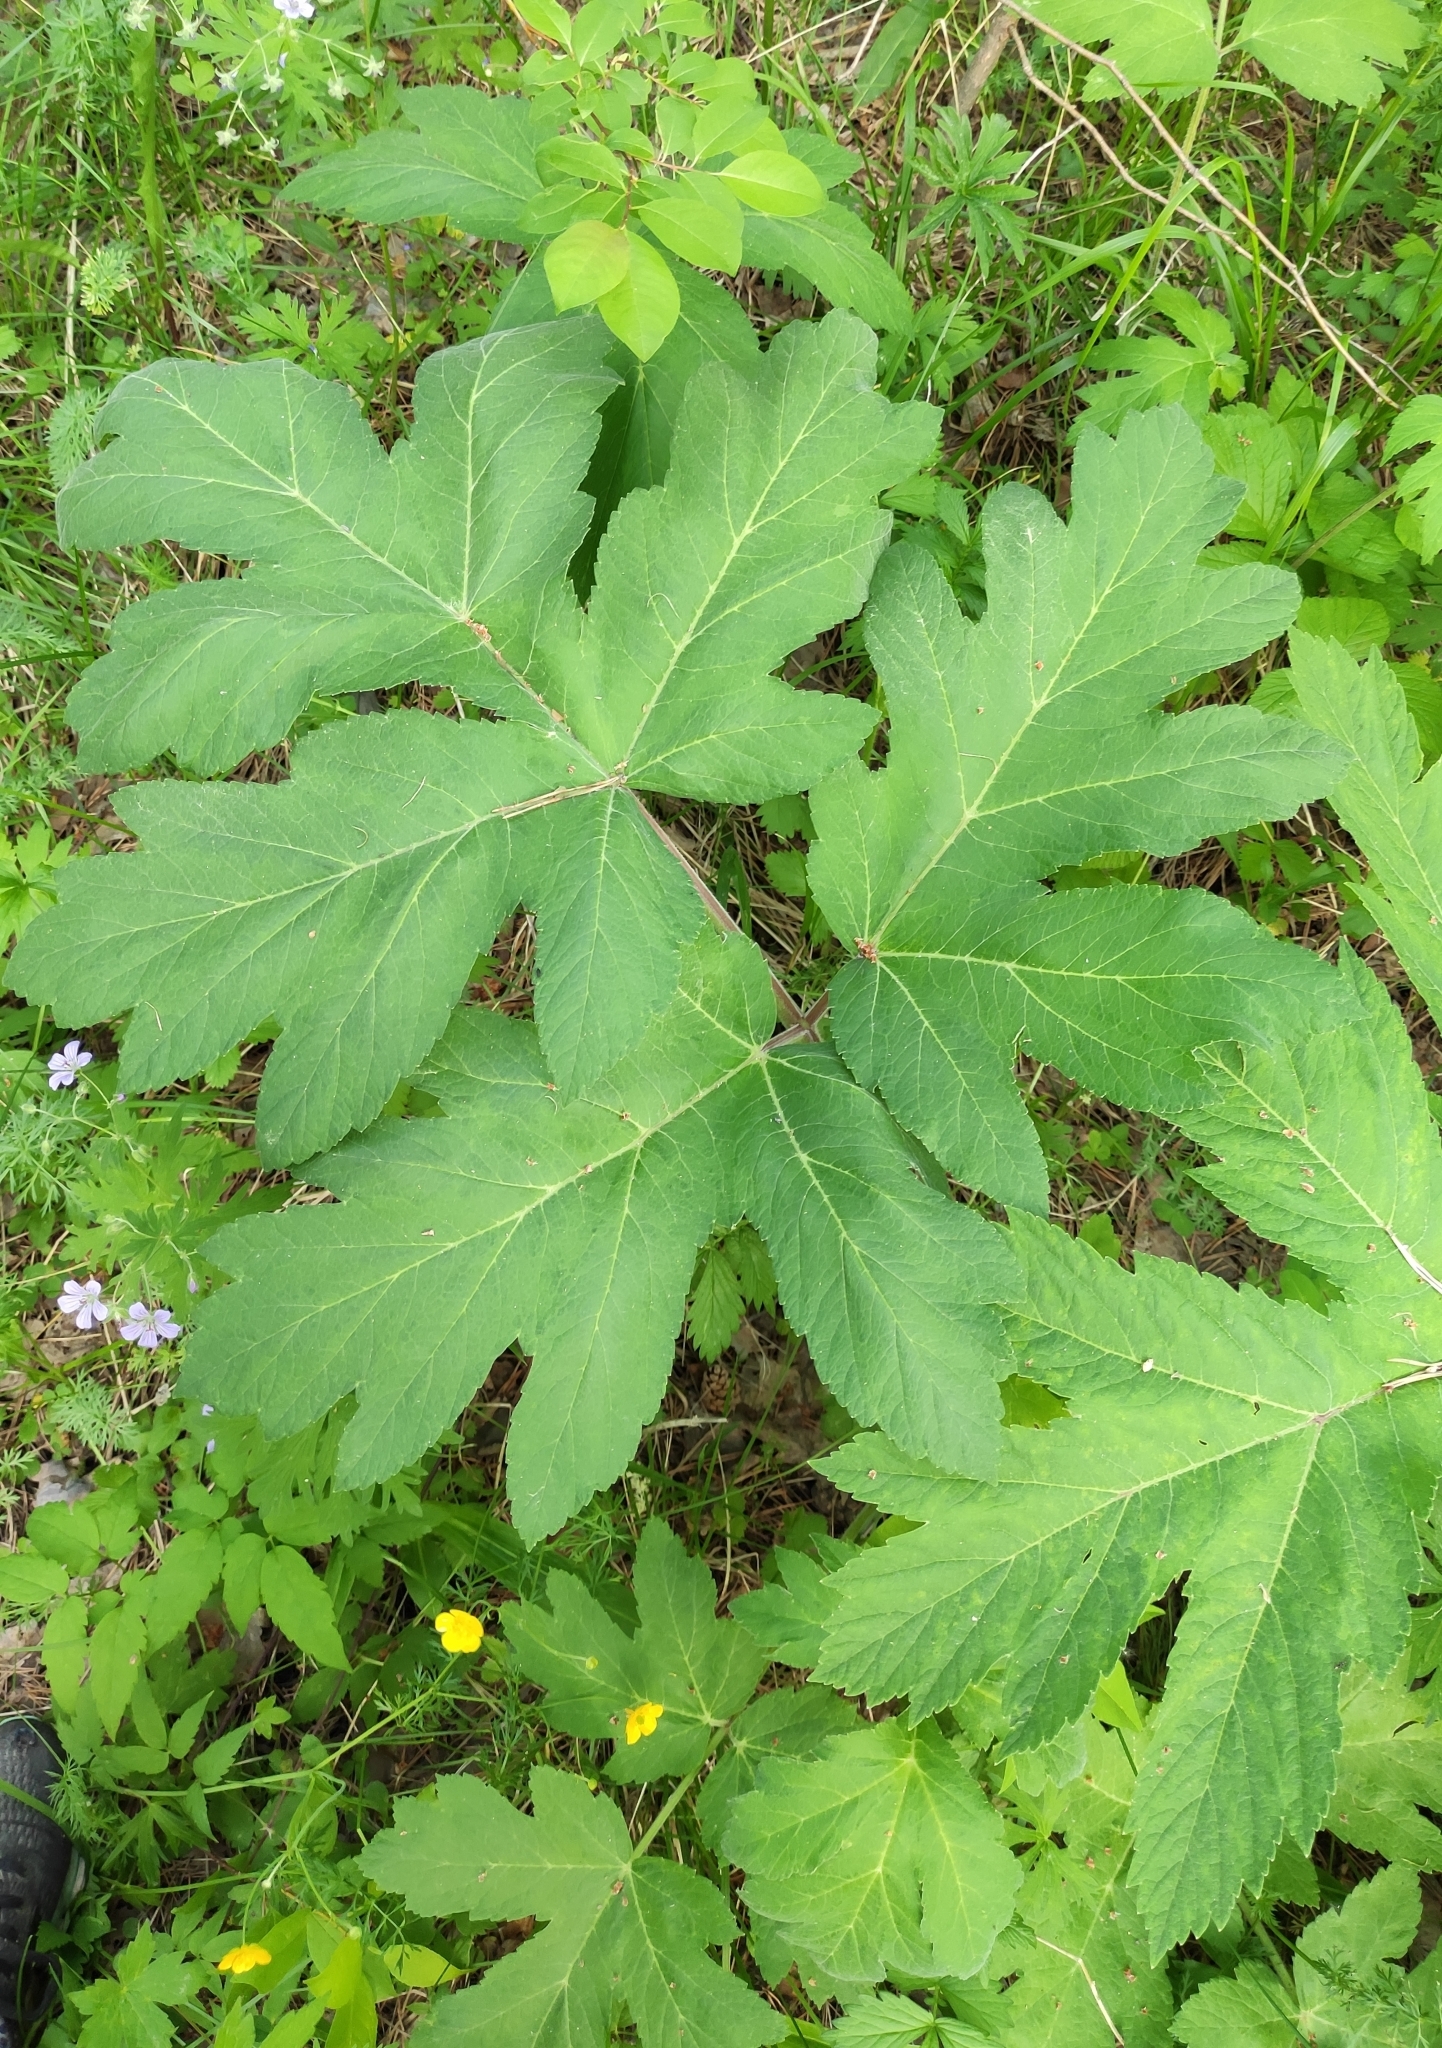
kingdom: Plantae
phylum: Tracheophyta
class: Magnoliopsida
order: Apiales
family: Apiaceae
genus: Heracleum
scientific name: Heracleum dissectum
